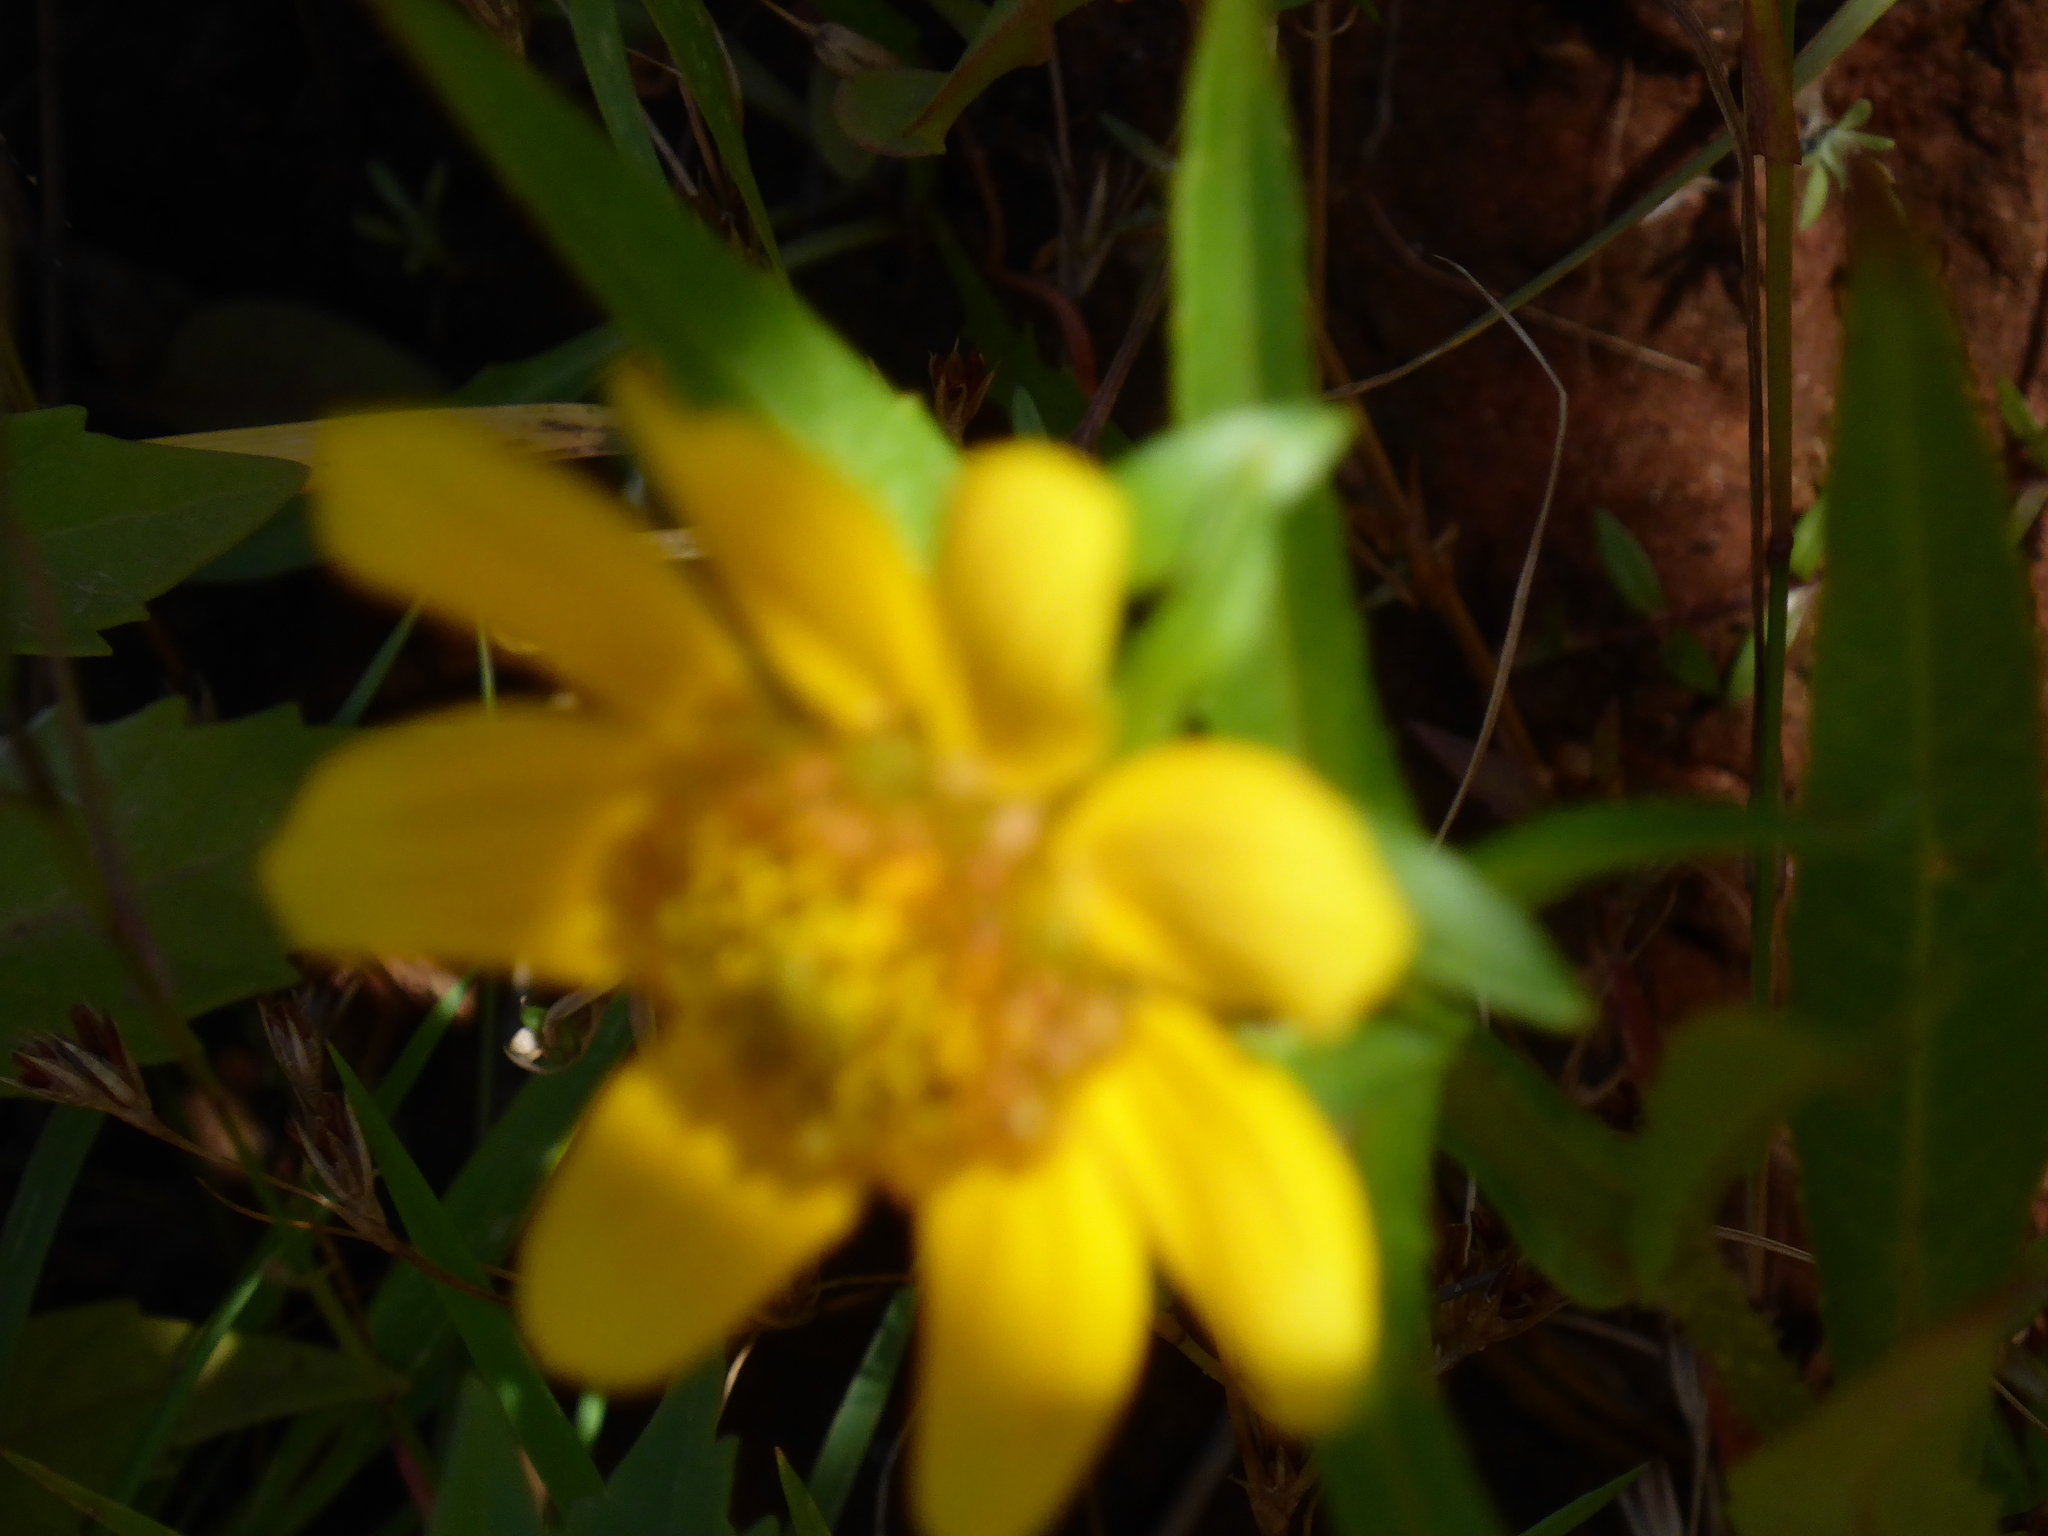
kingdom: Plantae
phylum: Tracheophyta
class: Magnoliopsida
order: Asterales
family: Asteraceae
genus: Bidens
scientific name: Bidens cernua
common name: Nodding bur-marigold
